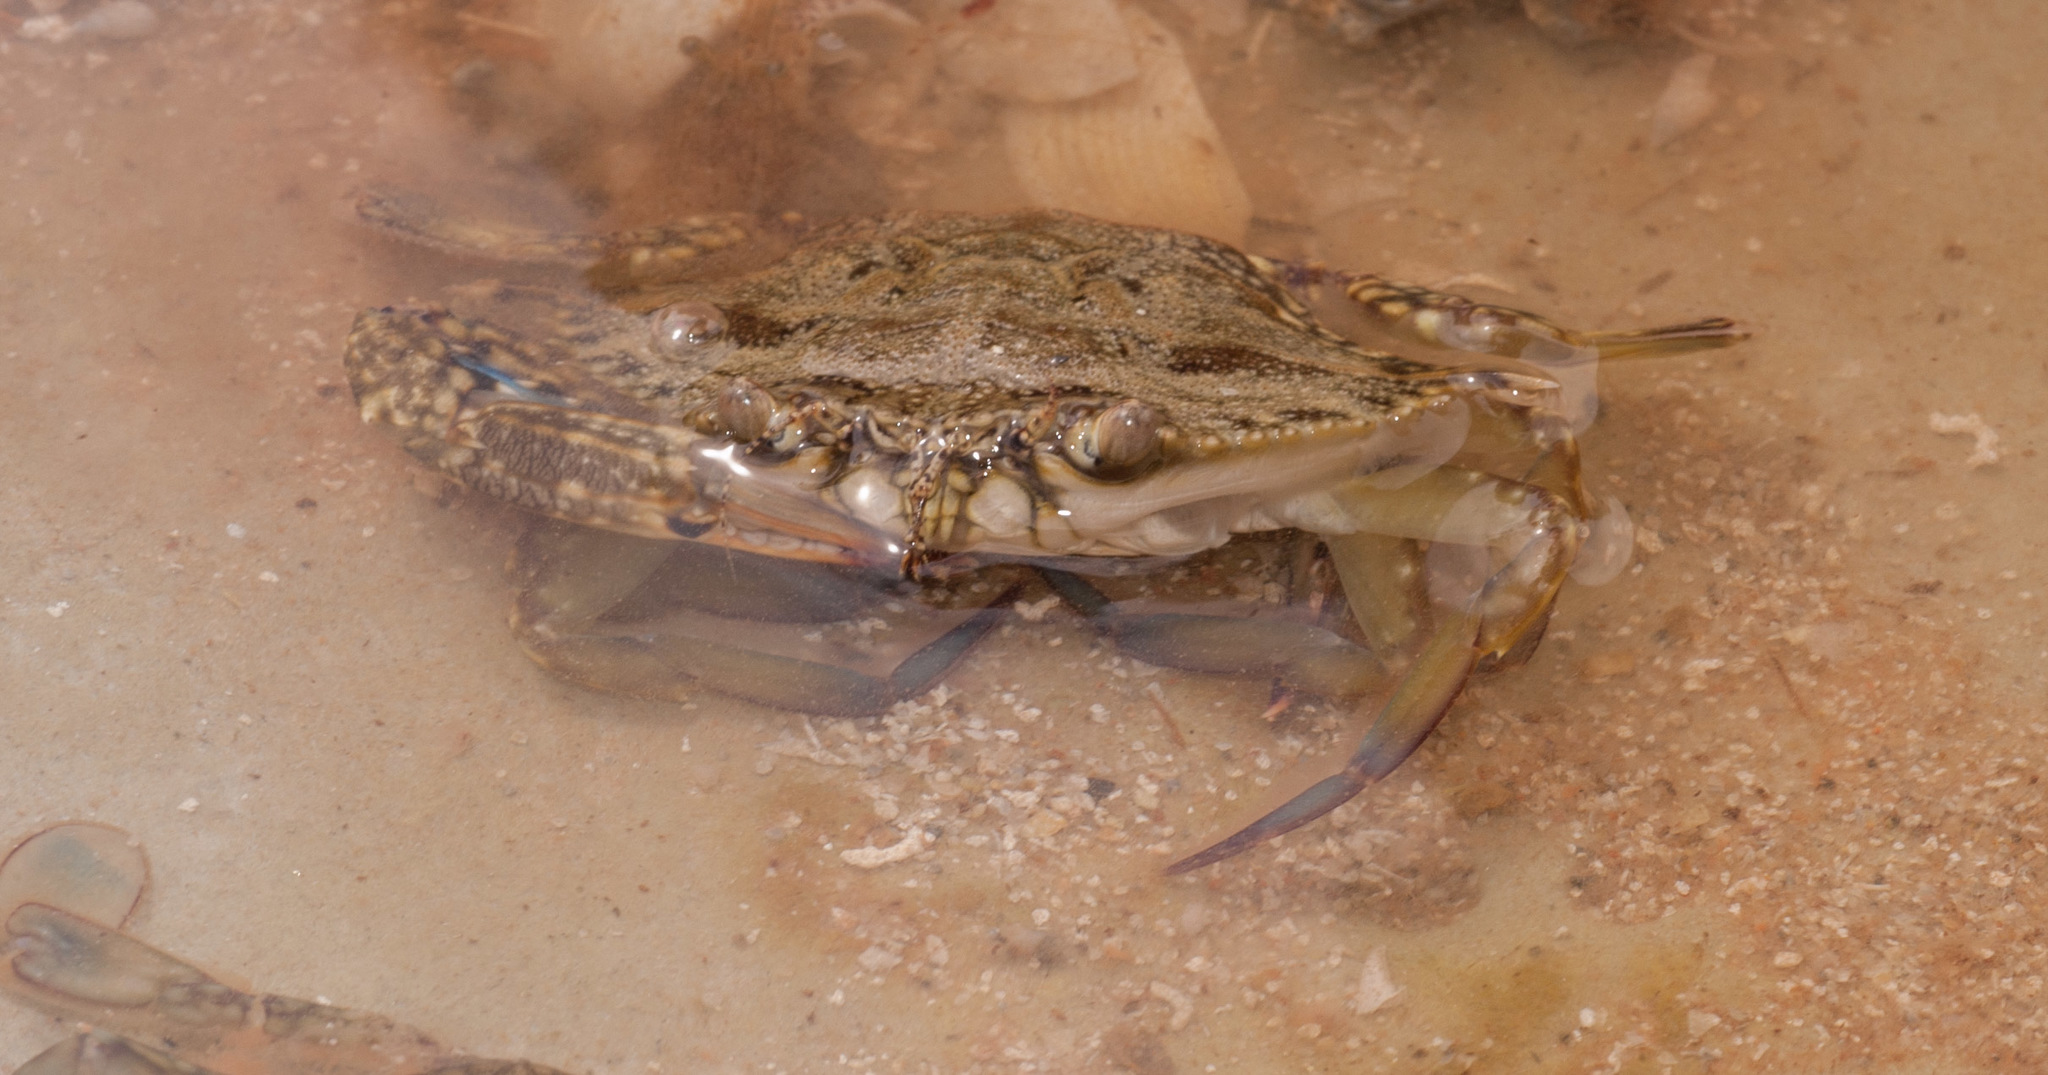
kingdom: Animalia
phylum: Arthropoda
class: Malacostraca
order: Decapoda
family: Portunidae
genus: Portunus
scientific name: Portunus armatus
